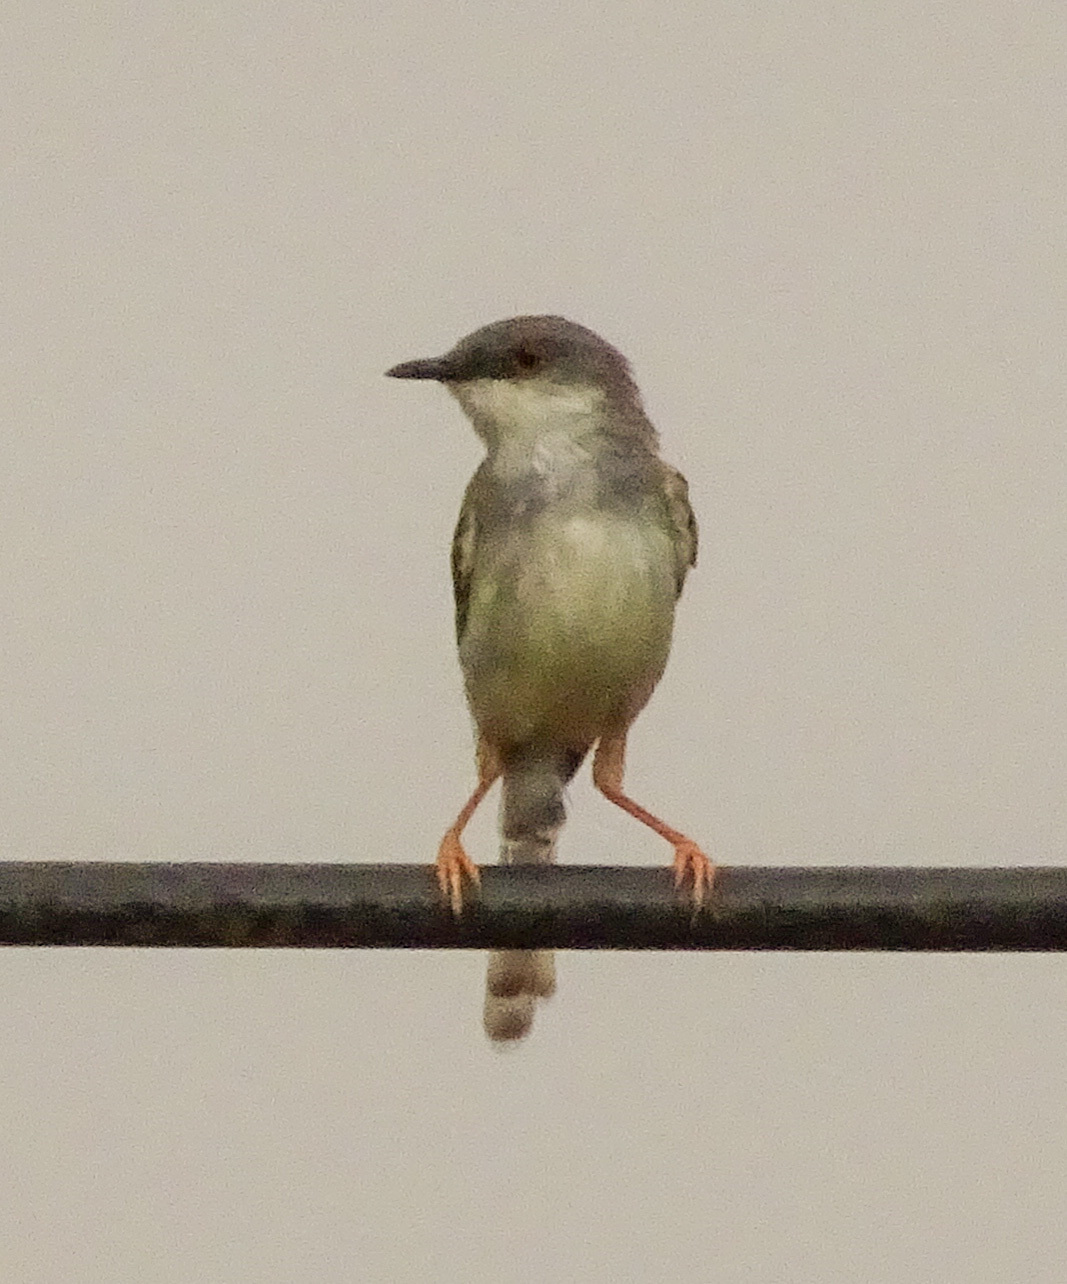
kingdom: Animalia
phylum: Chordata
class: Aves
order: Passeriformes
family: Cisticolidae
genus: Prinia
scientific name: Prinia hodgsonii
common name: Grey-breasted prinia
